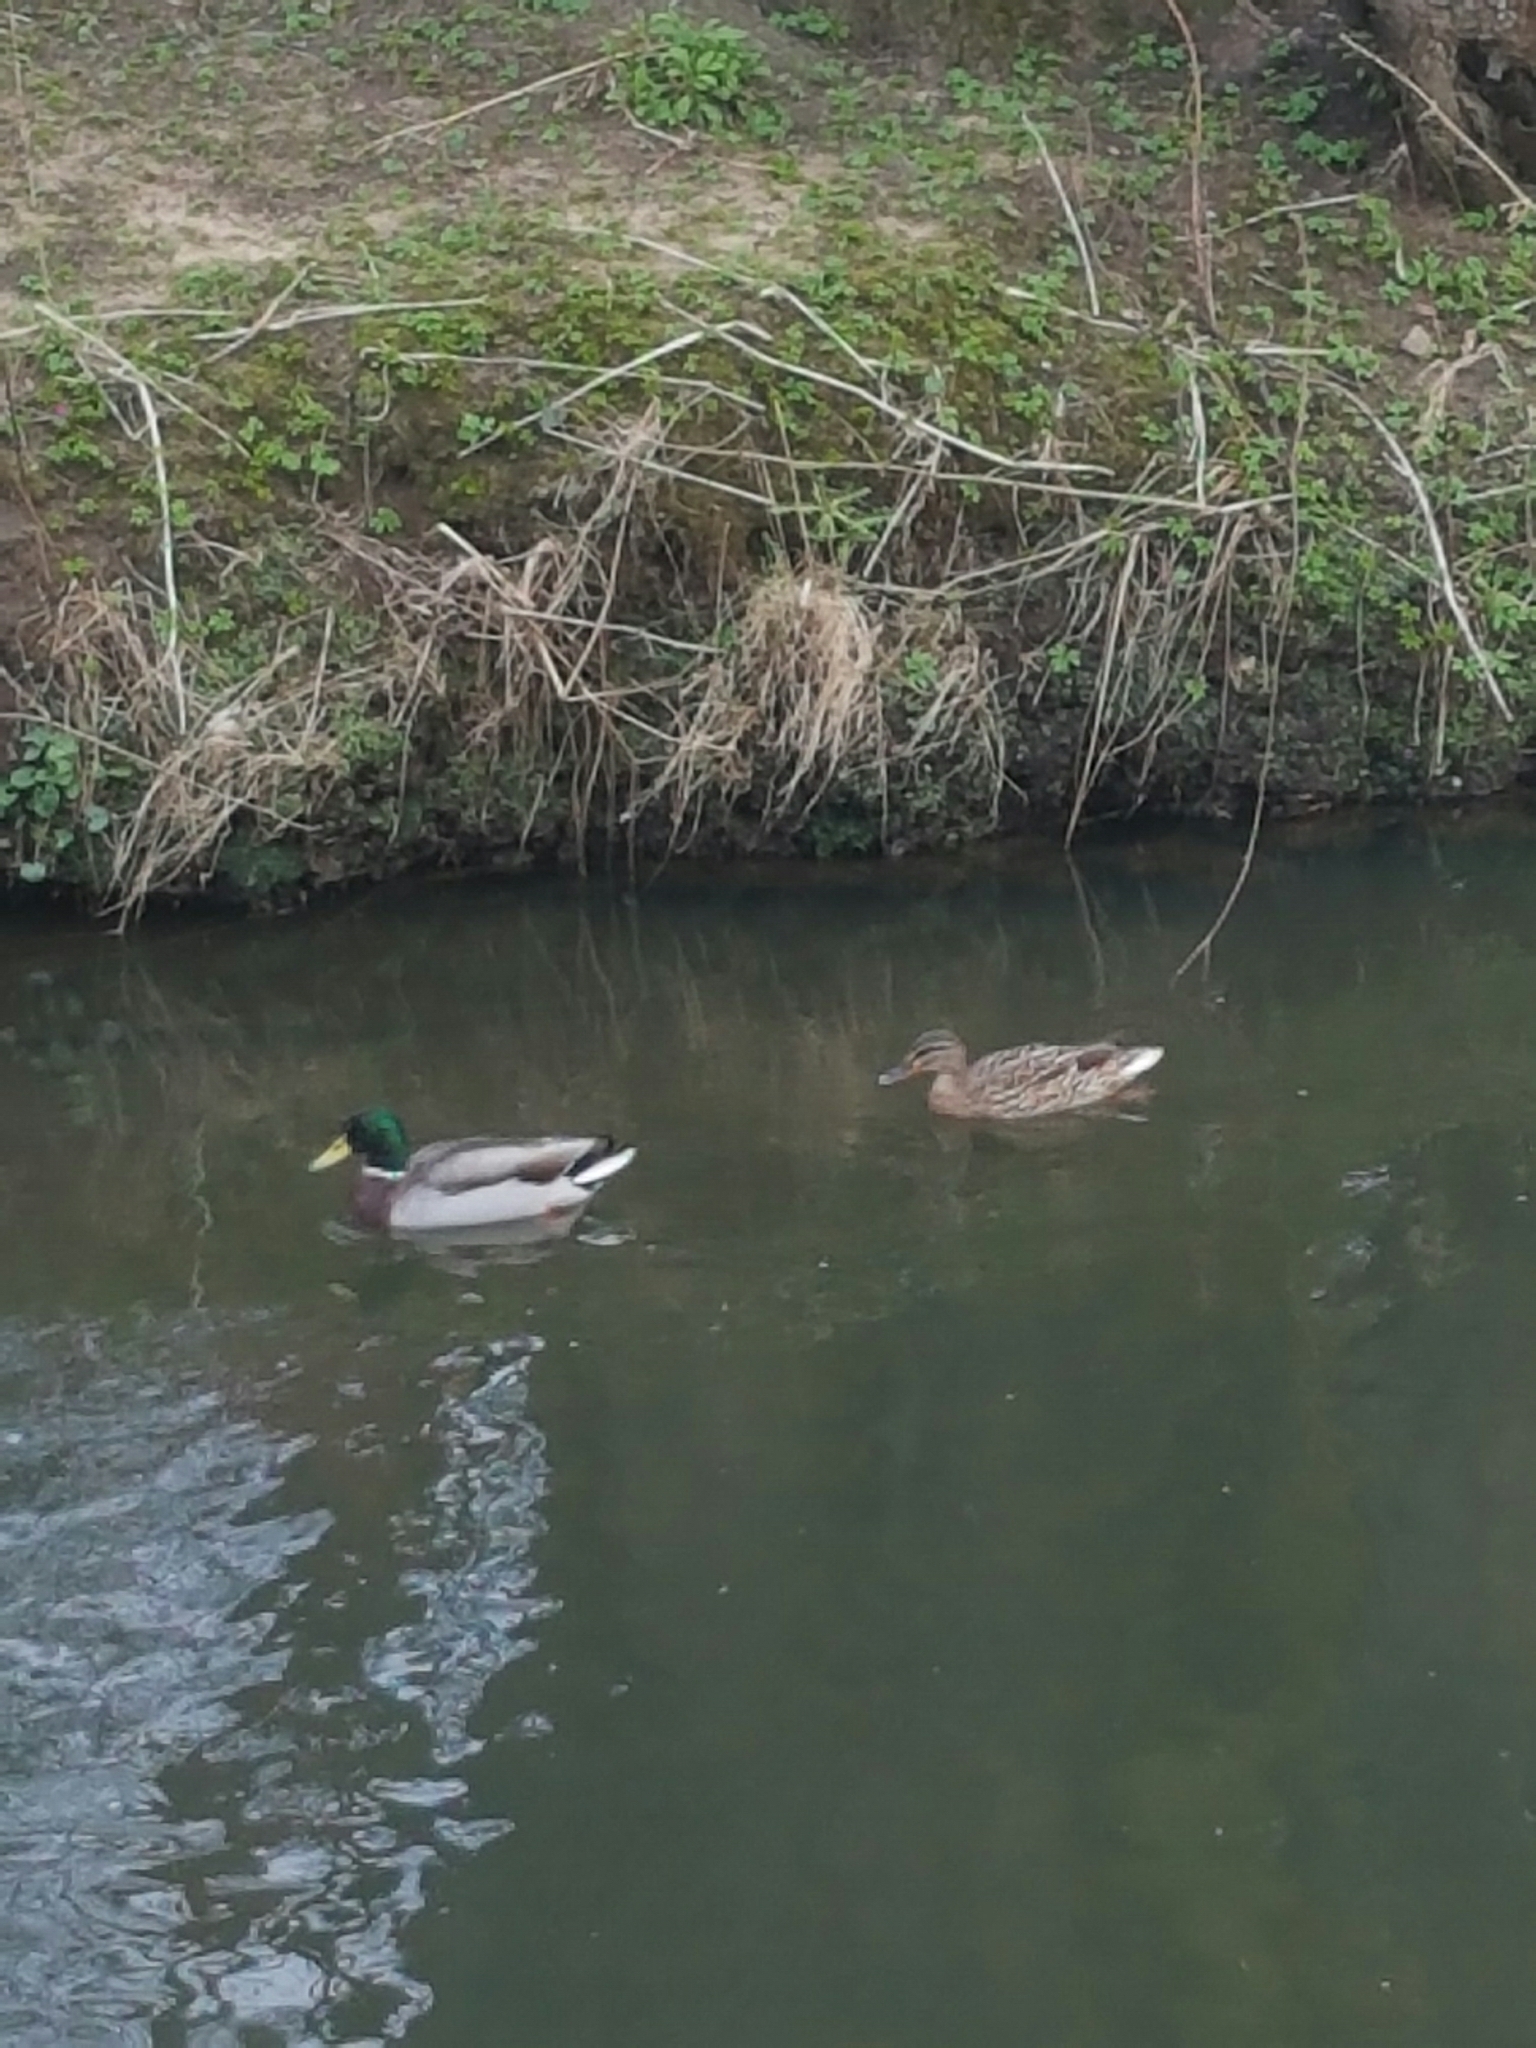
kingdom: Animalia
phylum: Chordata
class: Aves
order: Anseriformes
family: Anatidae
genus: Anas
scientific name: Anas platyrhynchos
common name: Mallard
